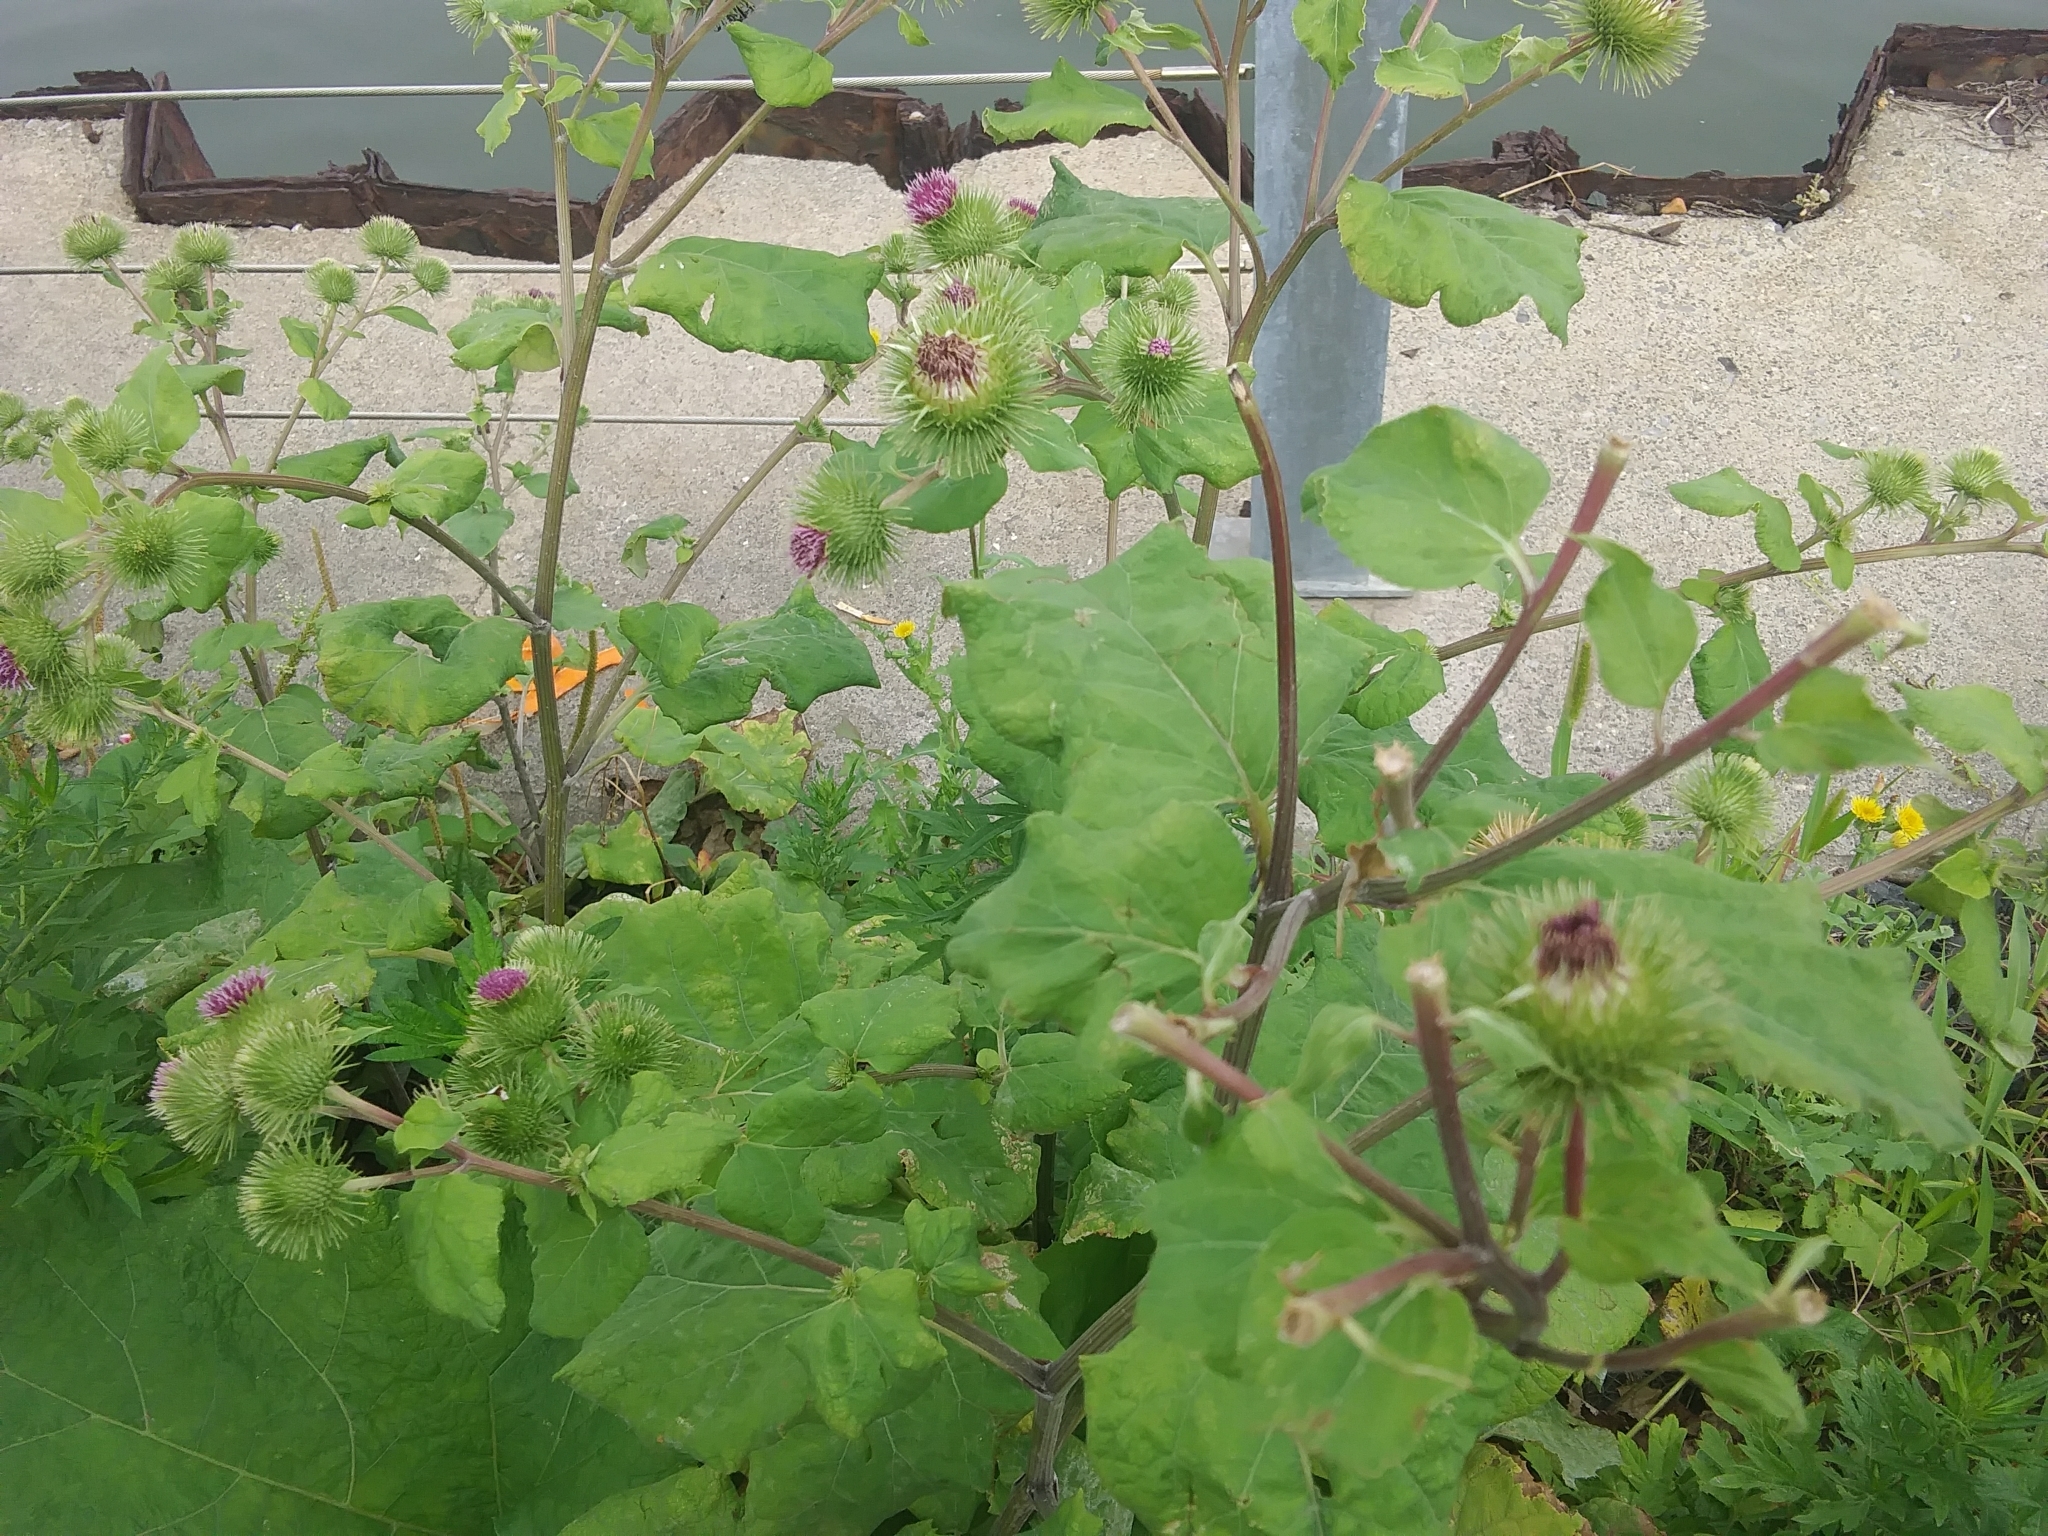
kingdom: Plantae
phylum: Tracheophyta
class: Magnoliopsida
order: Asterales
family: Asteraceae
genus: Arctium
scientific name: Arctium minus
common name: Lesser burdock
